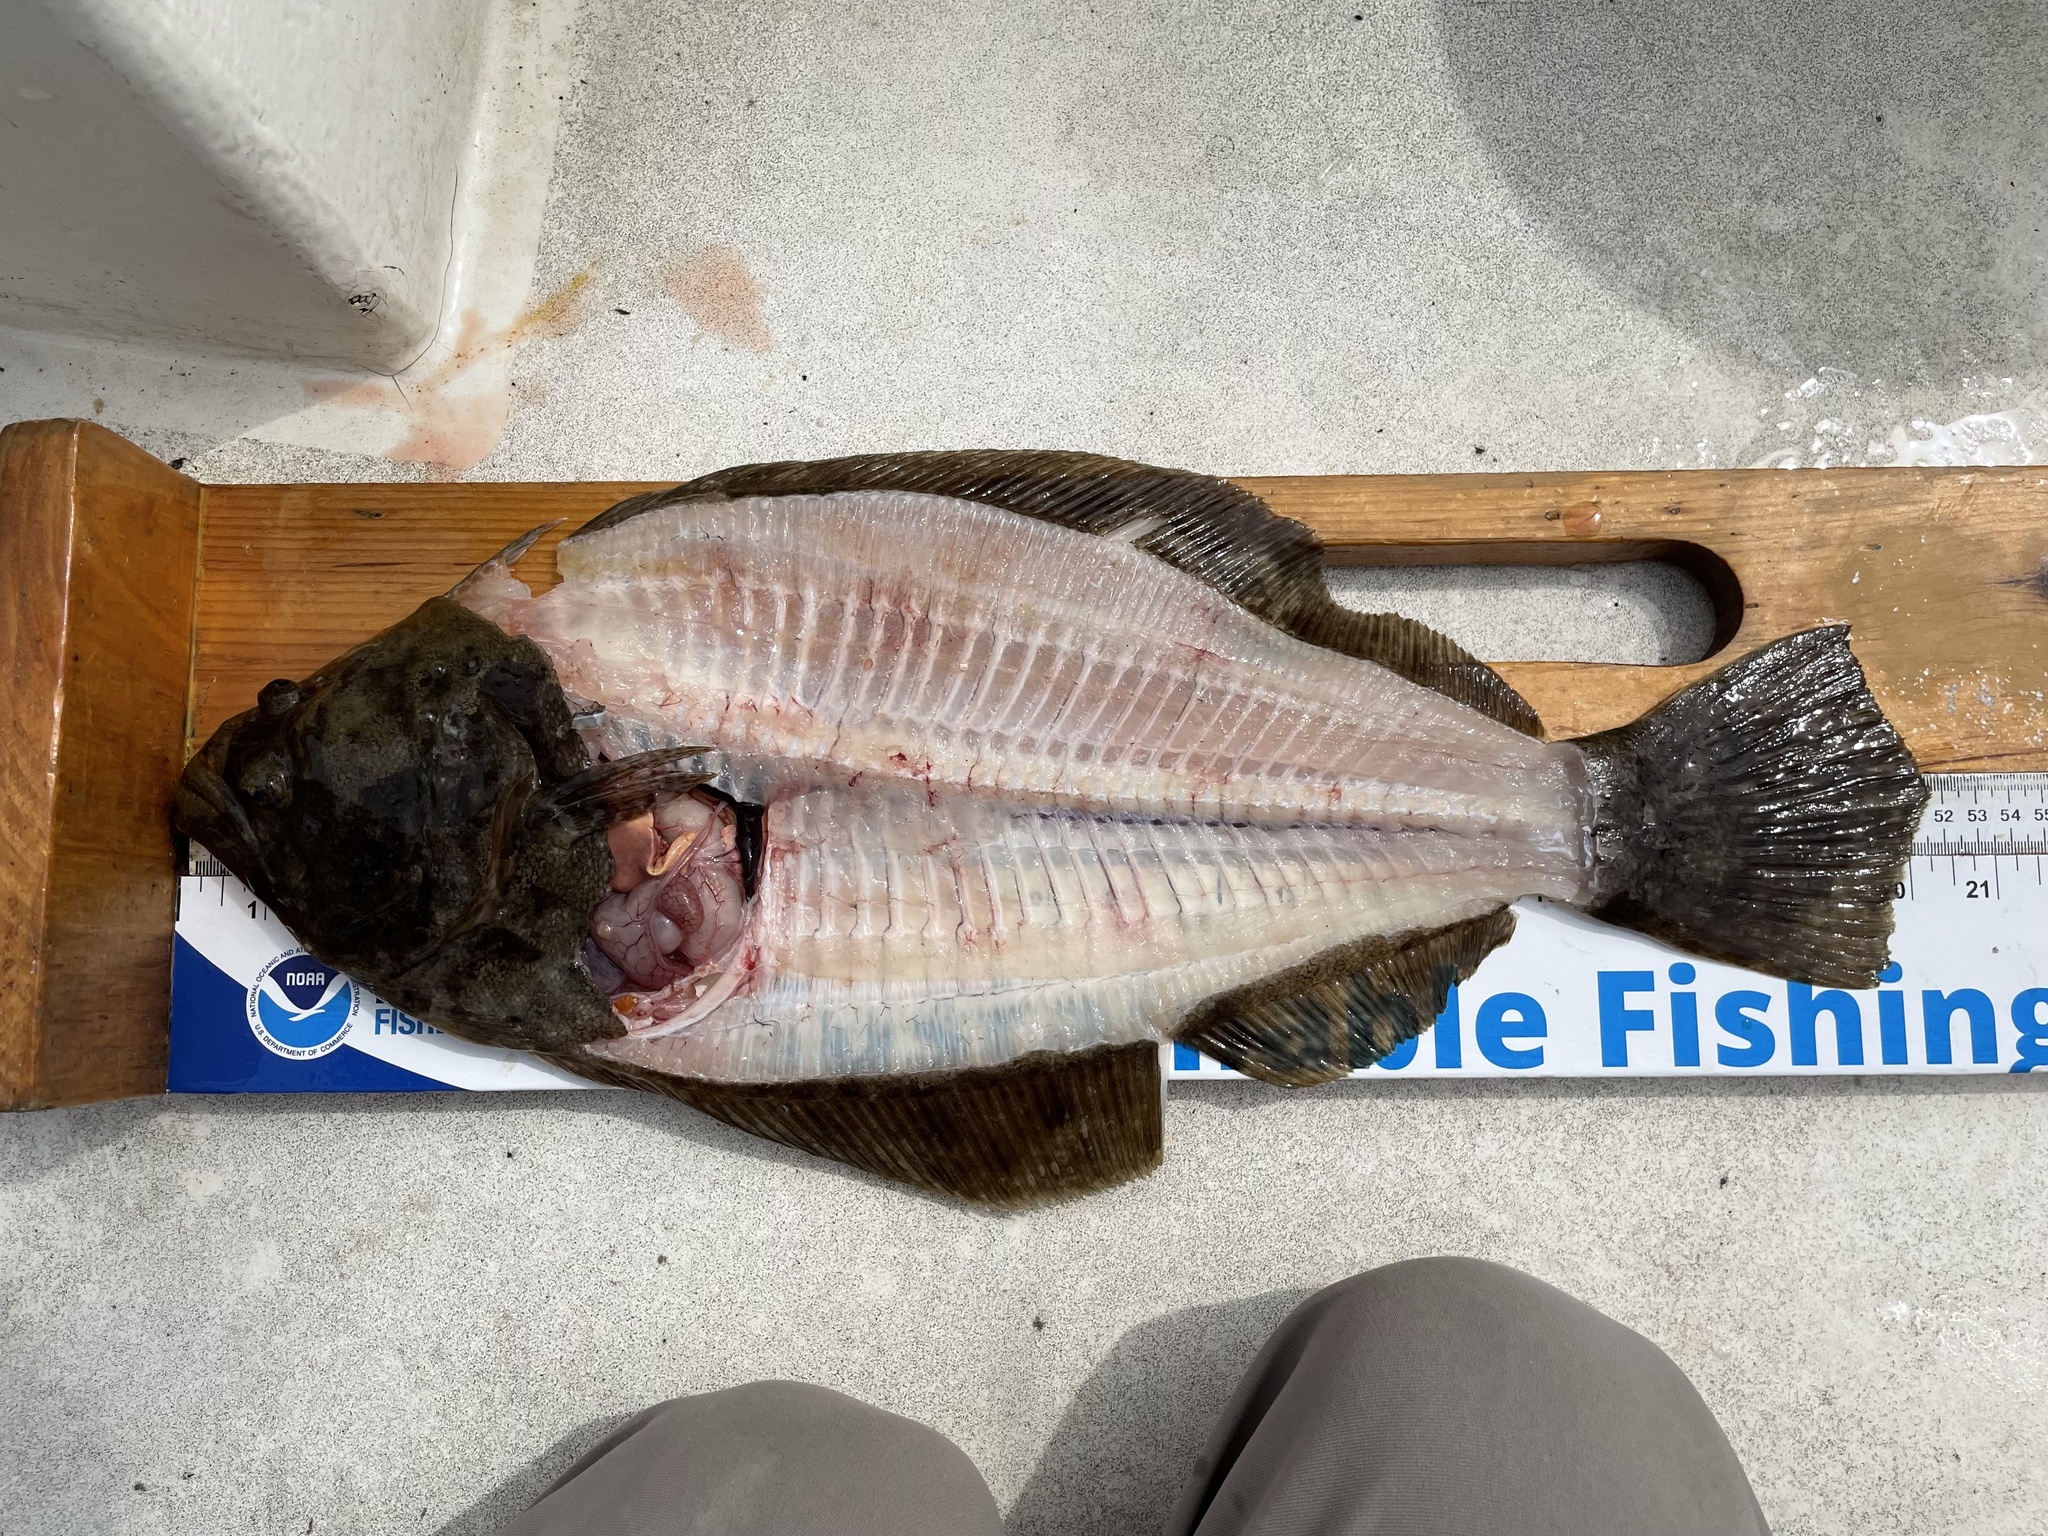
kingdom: Animalia
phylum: Chordata
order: Pleuronectiformes
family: Paralichthyidae
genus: Paralichthys
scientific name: Paralichthys dentatus
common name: Summer flounder
